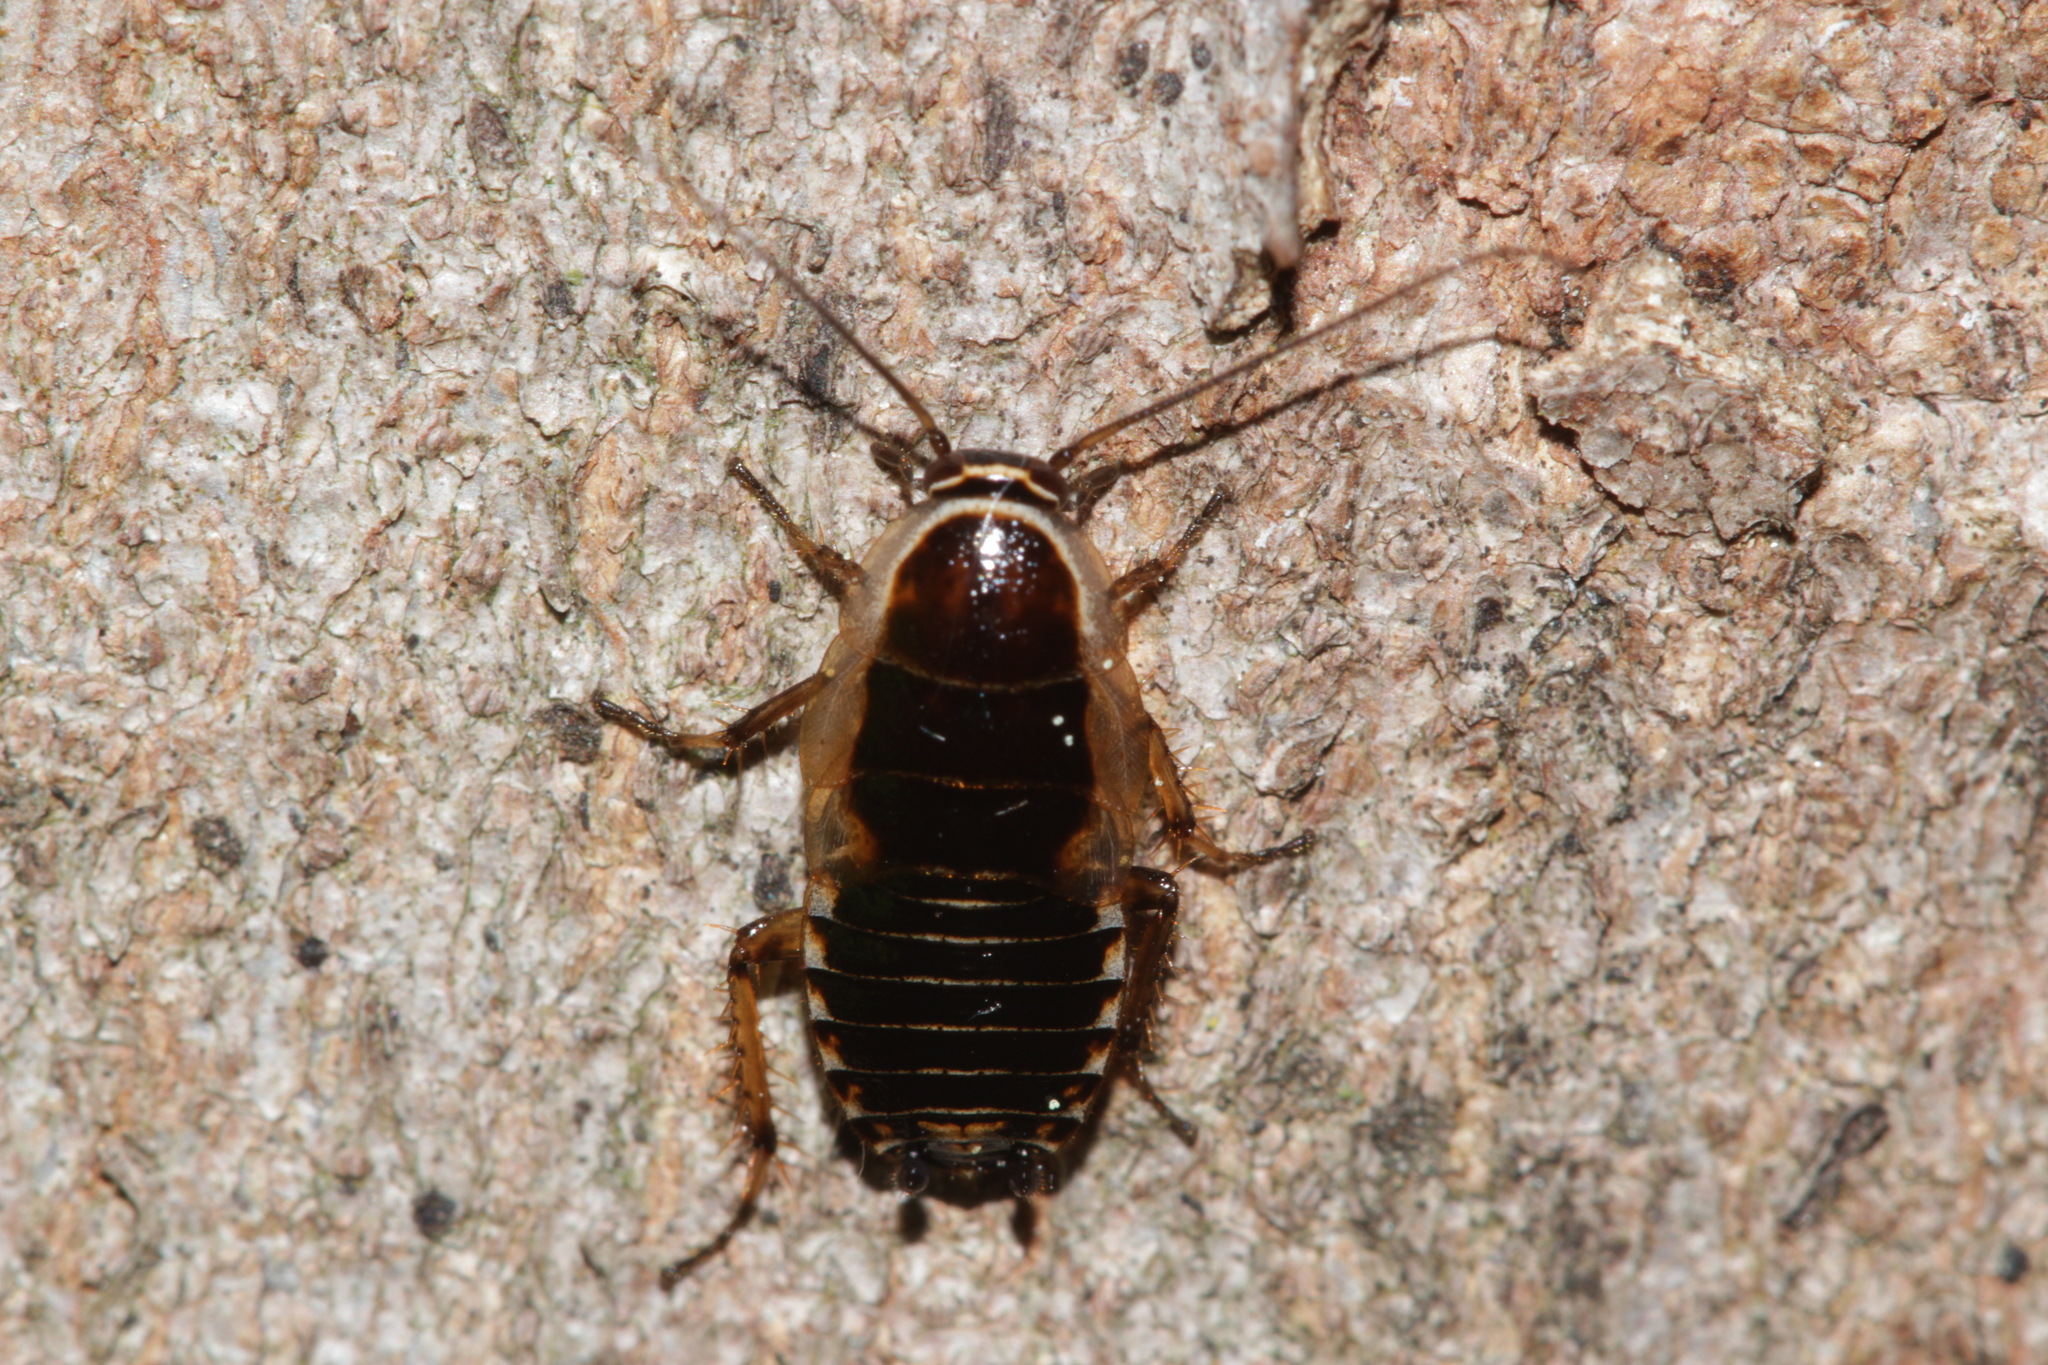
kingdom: Animalia
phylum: Arthropoda
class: Insecta
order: Blattodea
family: Ectobiidae
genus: Ectobius
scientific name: Ectobius sylvestris
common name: Forest cockroach
